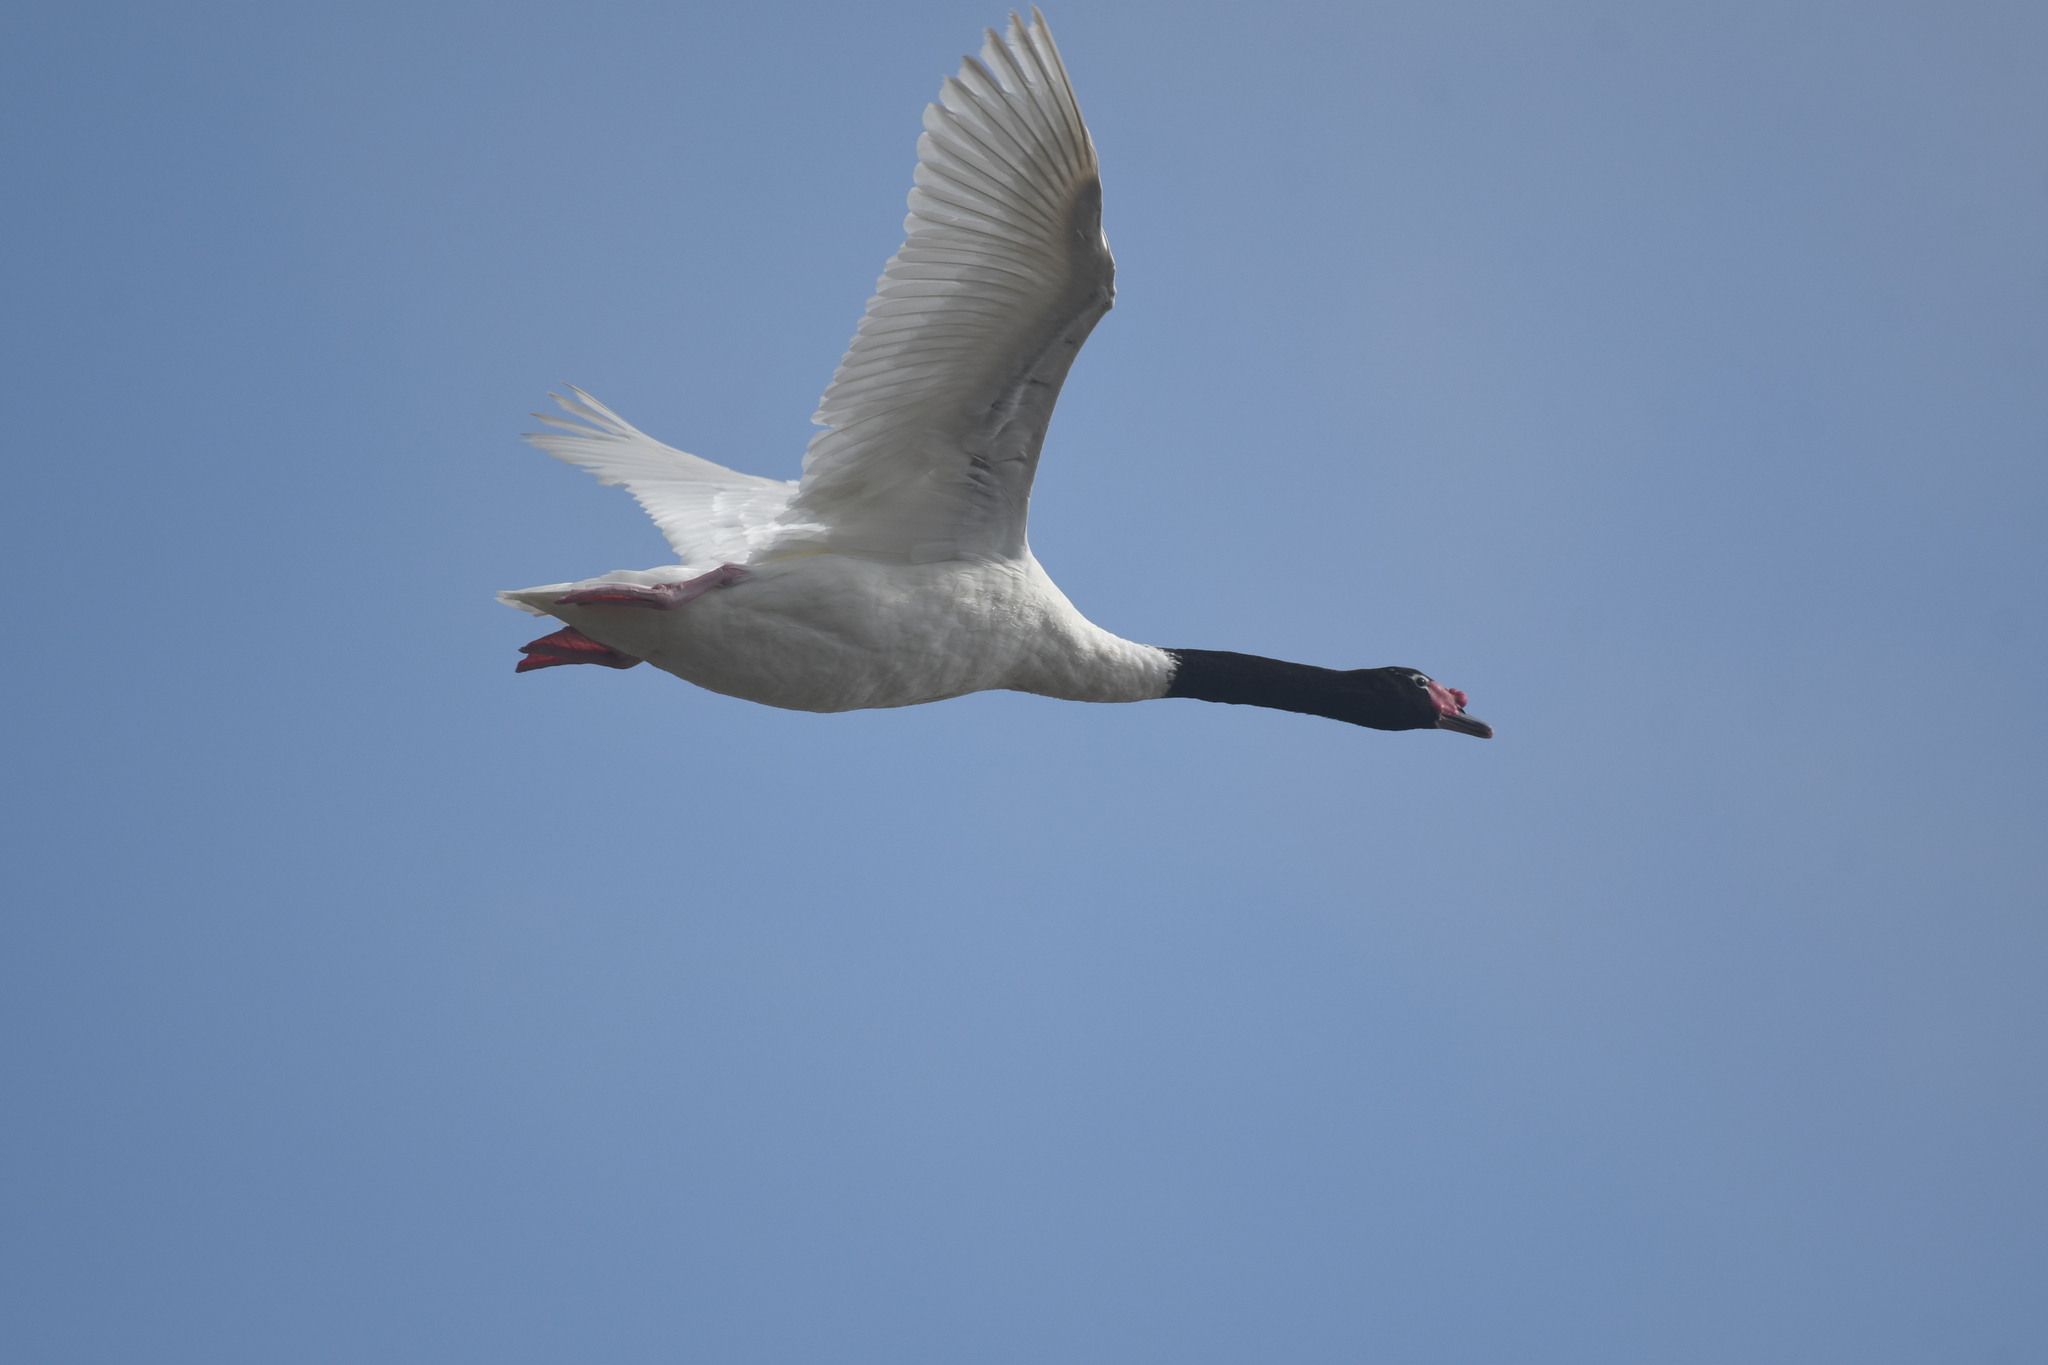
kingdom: Animalia
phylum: Chordata
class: Aves
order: Anseriformes
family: Anatidae
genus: Cygnus
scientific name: Cygnus melancoryphus
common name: Black-necked swan
